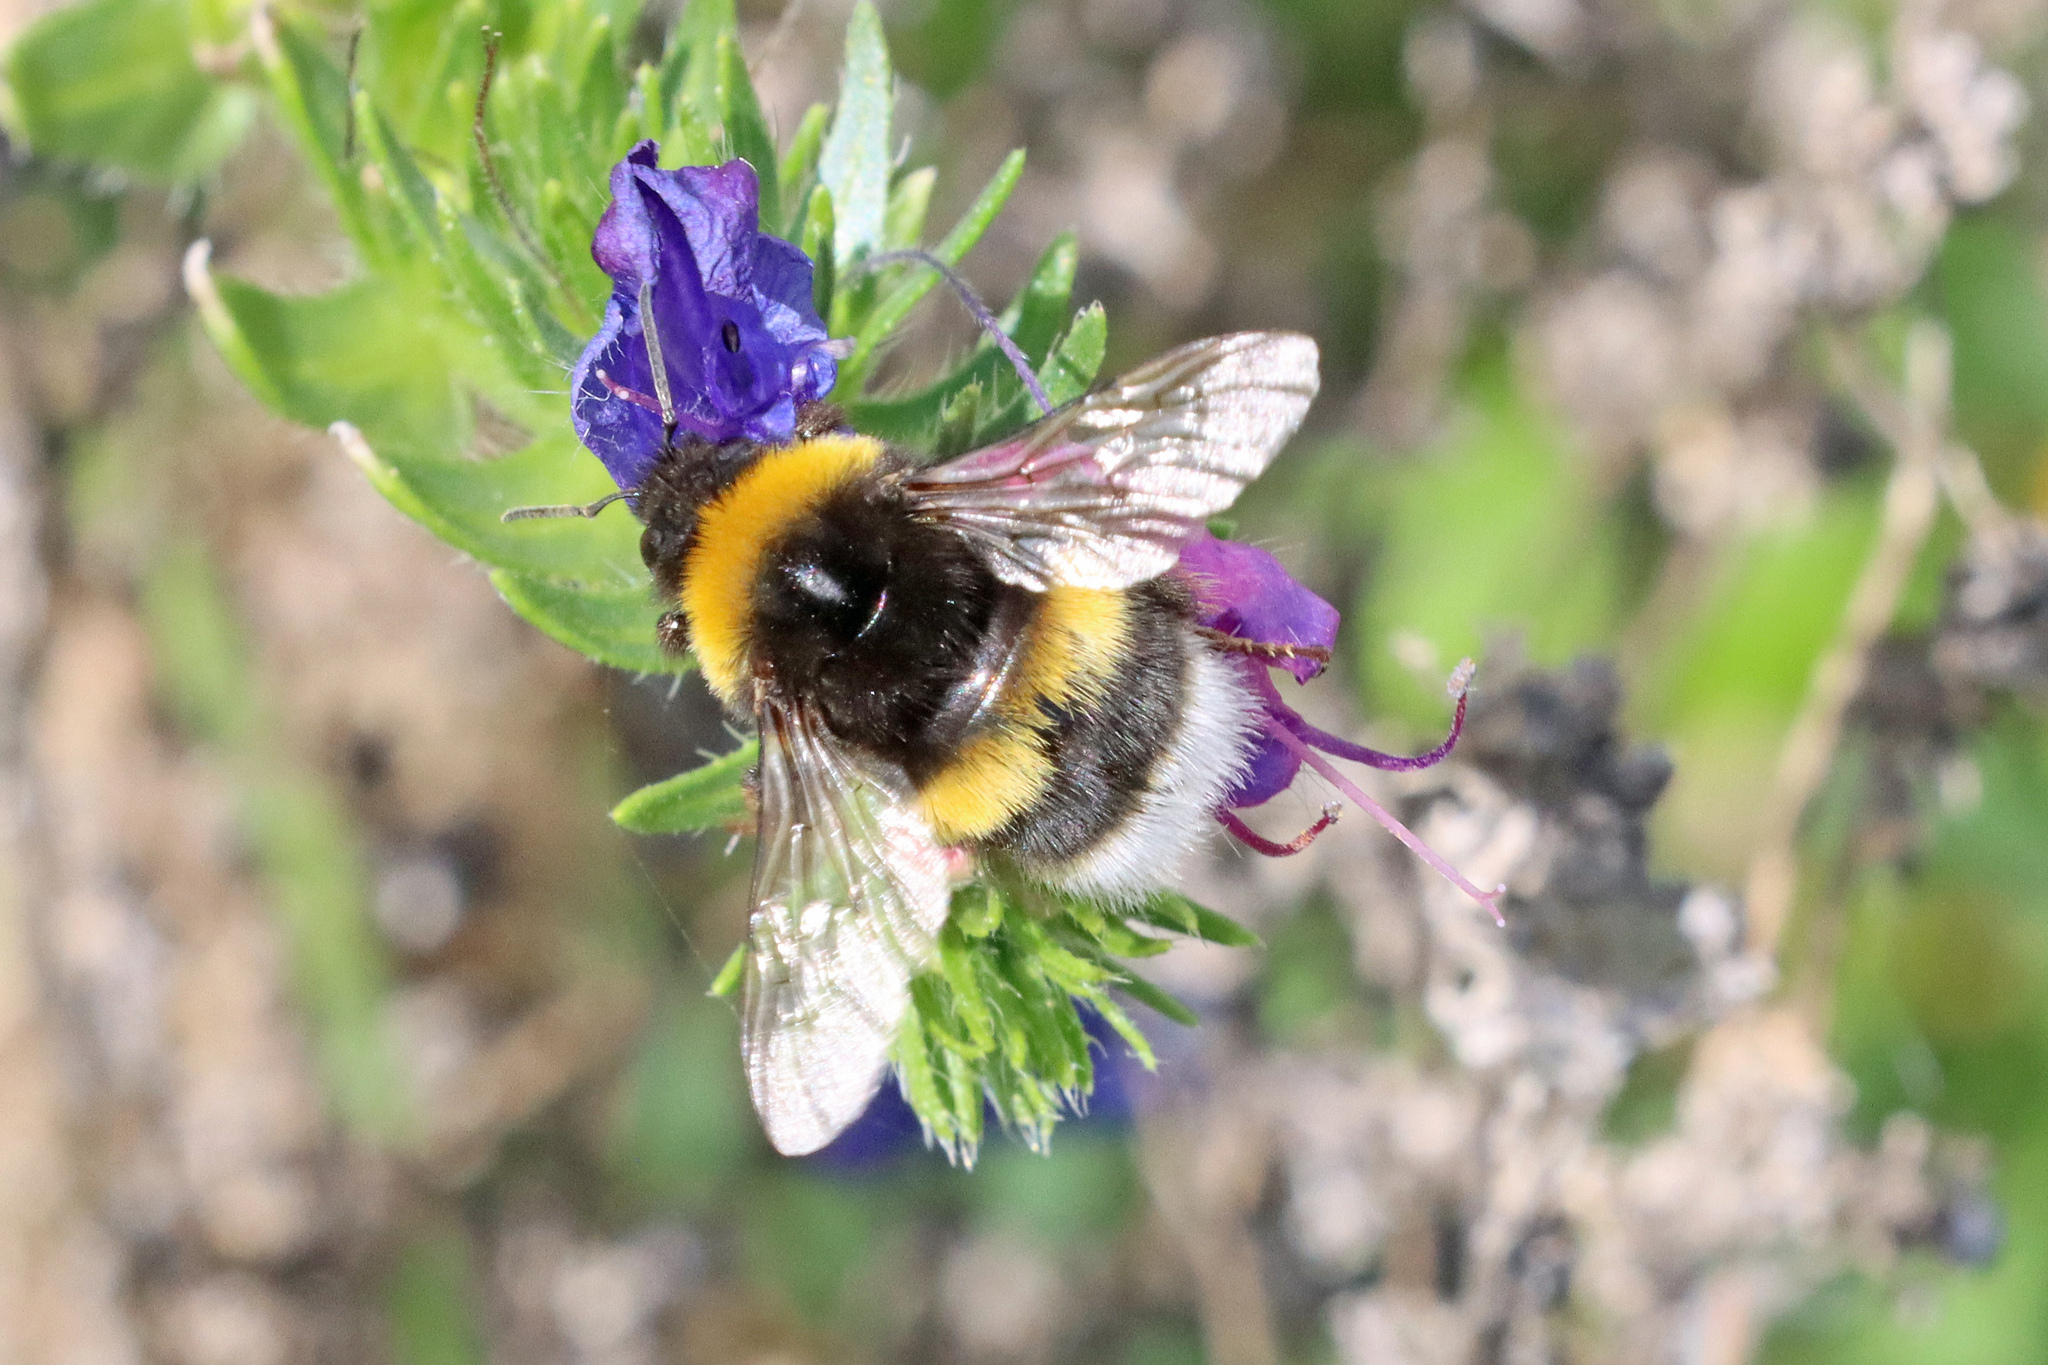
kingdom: Animalia
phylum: Arthropoda
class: Insecta
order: Hymenoptera
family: Apidae
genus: Bombus
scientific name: Bombus terrestris
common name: Buff-tailed bumblebee
